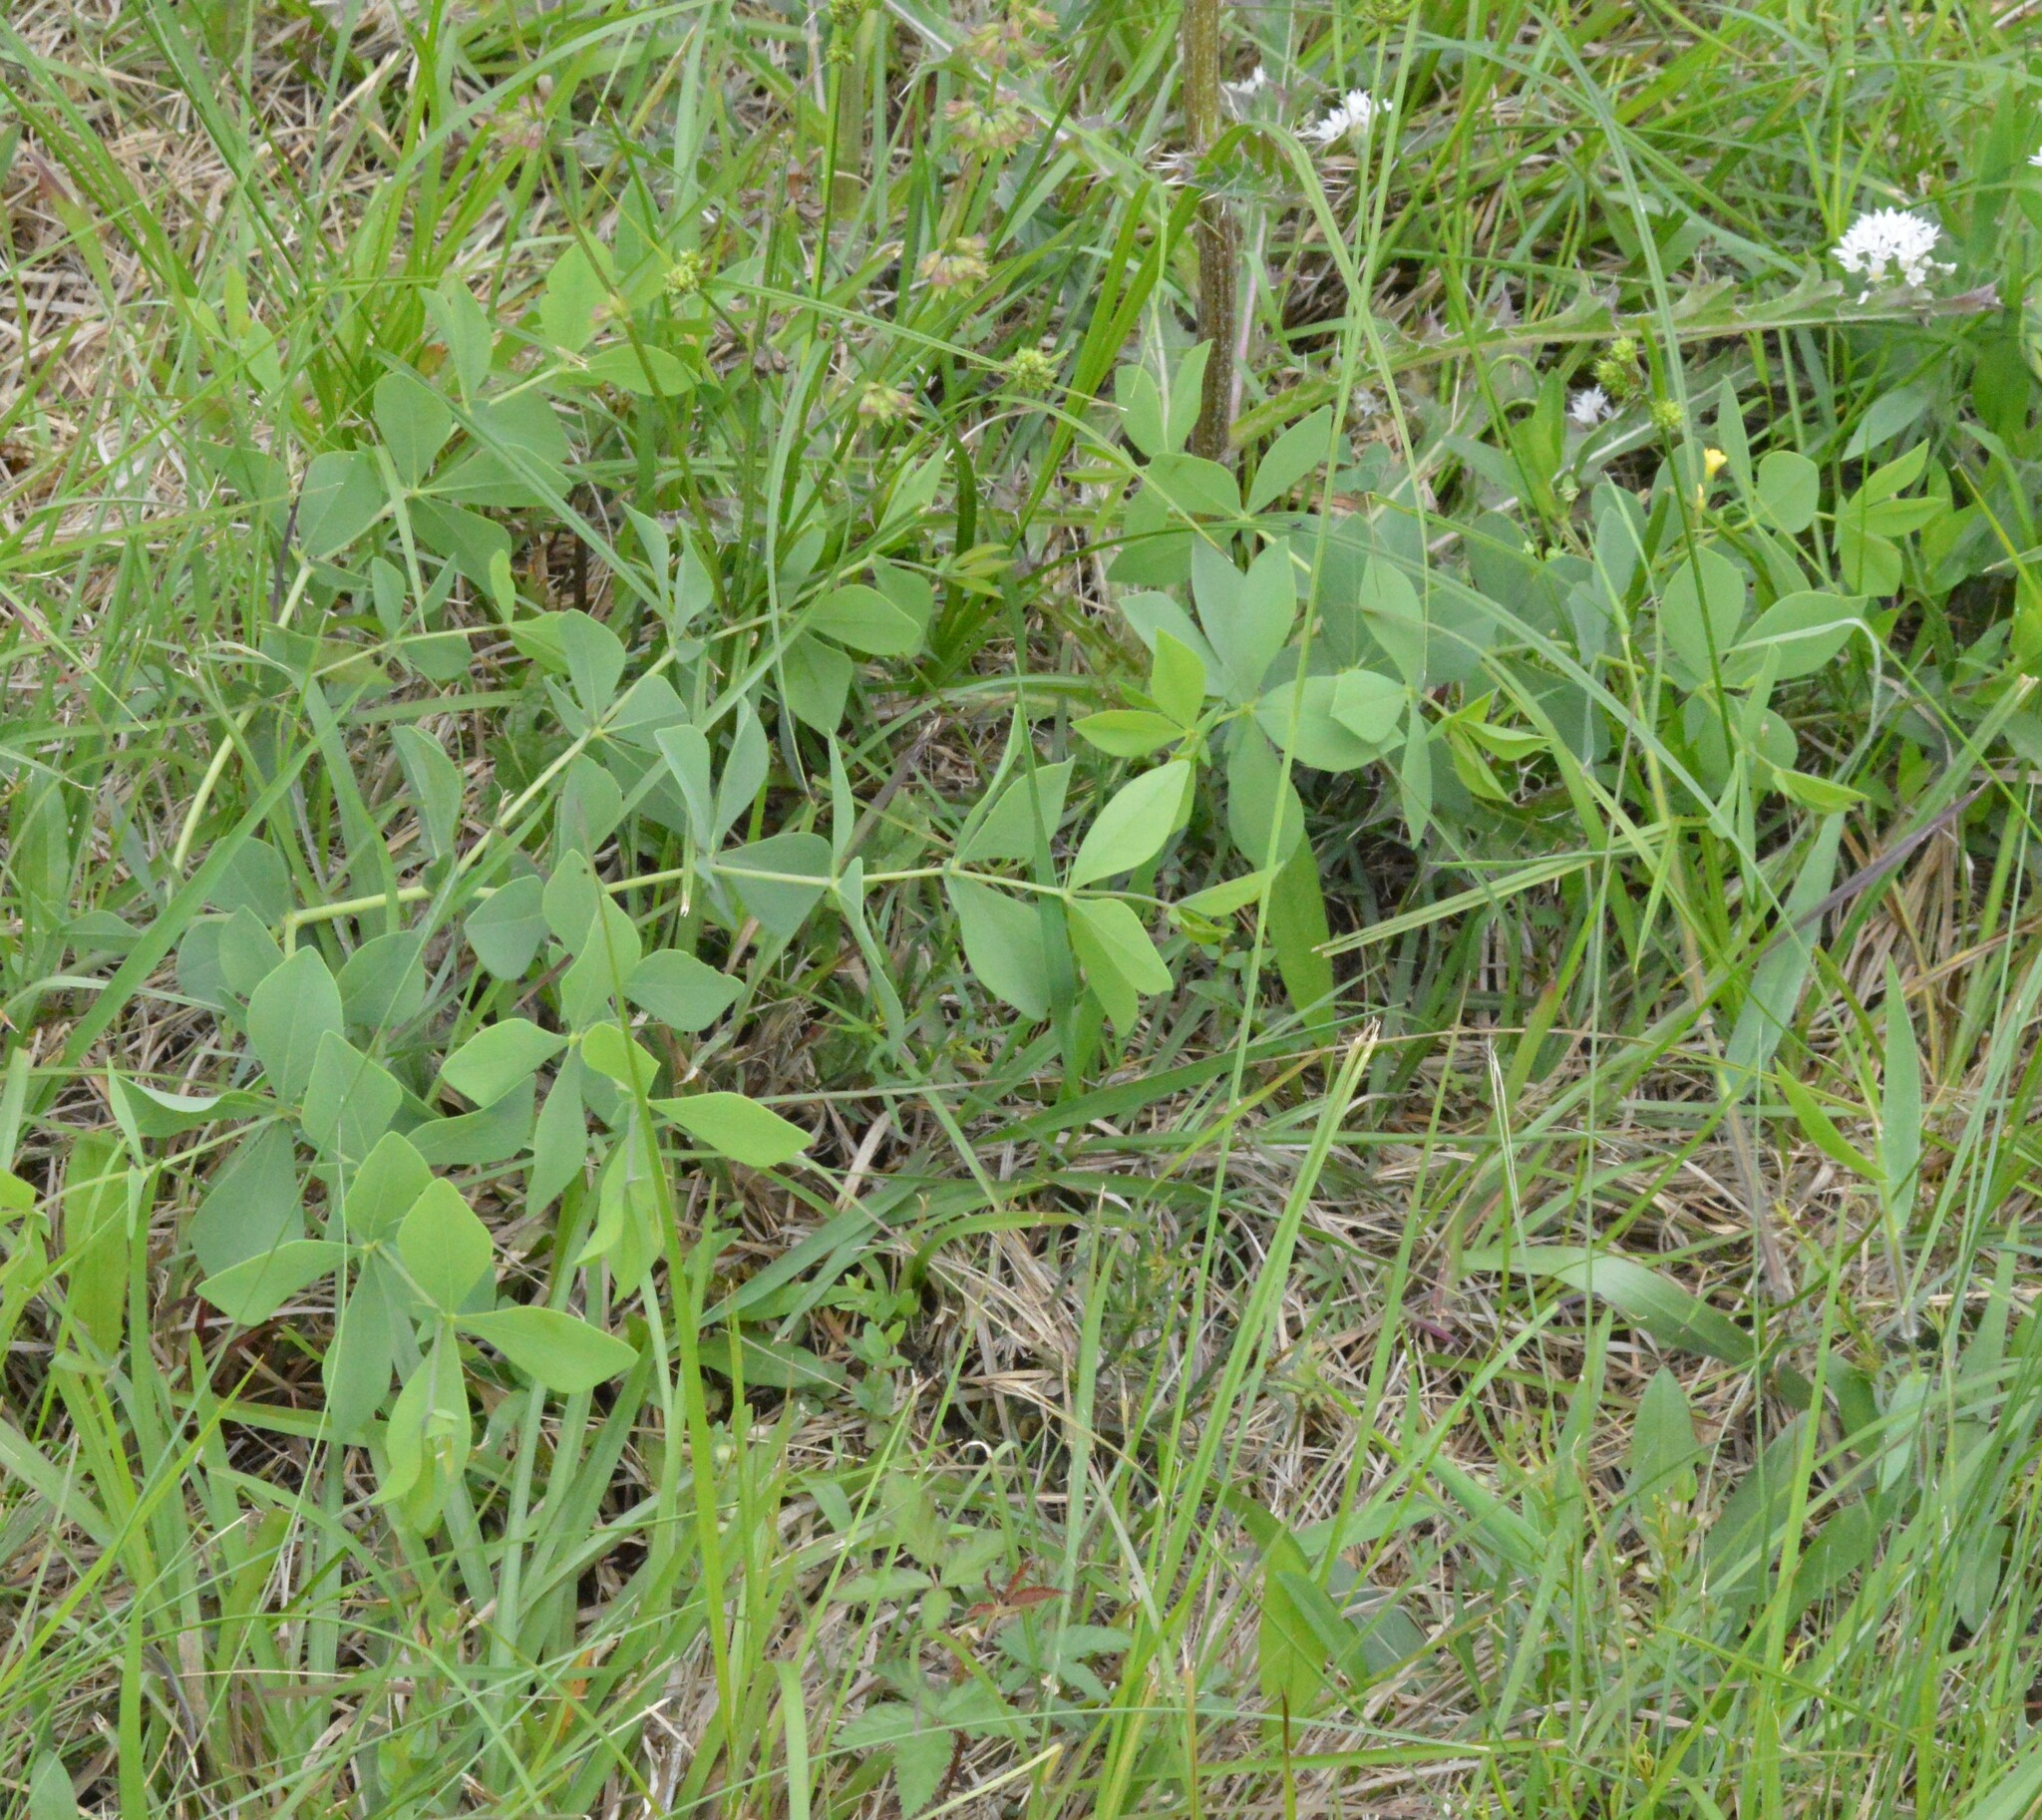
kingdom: Plantae
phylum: Tracheophyta
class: Magnoliopsida
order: Fabales
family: Fabaceae
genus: Baptisia
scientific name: Baptisia bracteata
